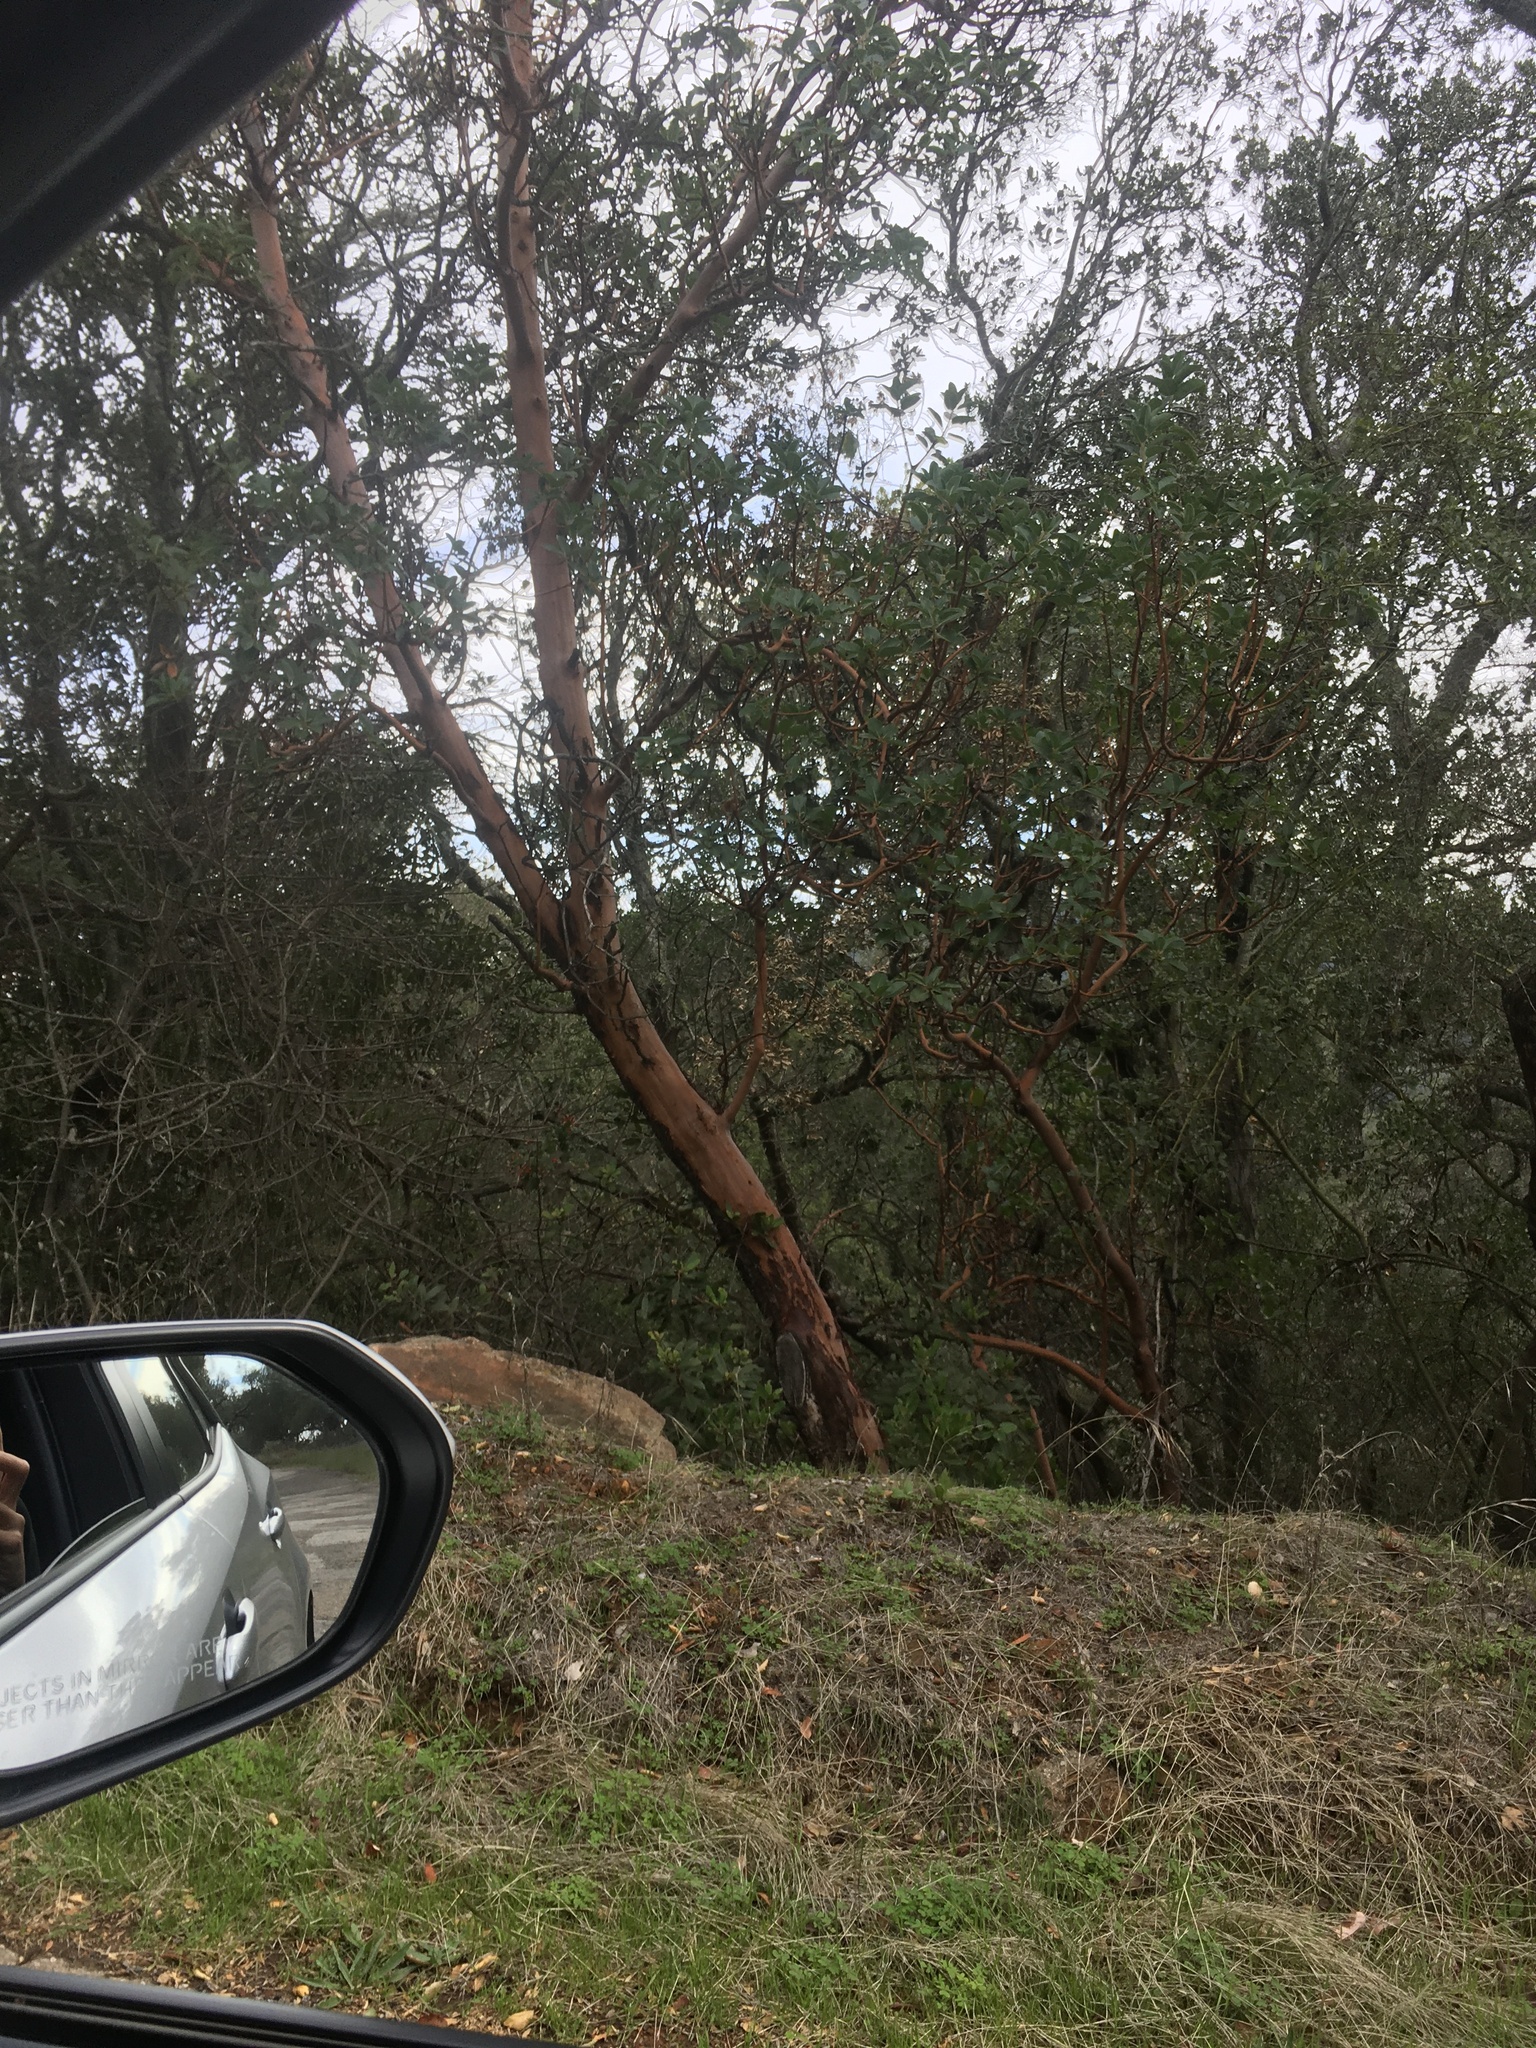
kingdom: Plantae
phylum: Tracheophyta
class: Magnoliopsida
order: Ericales
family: Ericaceae
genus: Arbutus
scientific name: Arbutus menziesii
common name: Pacific madrone
